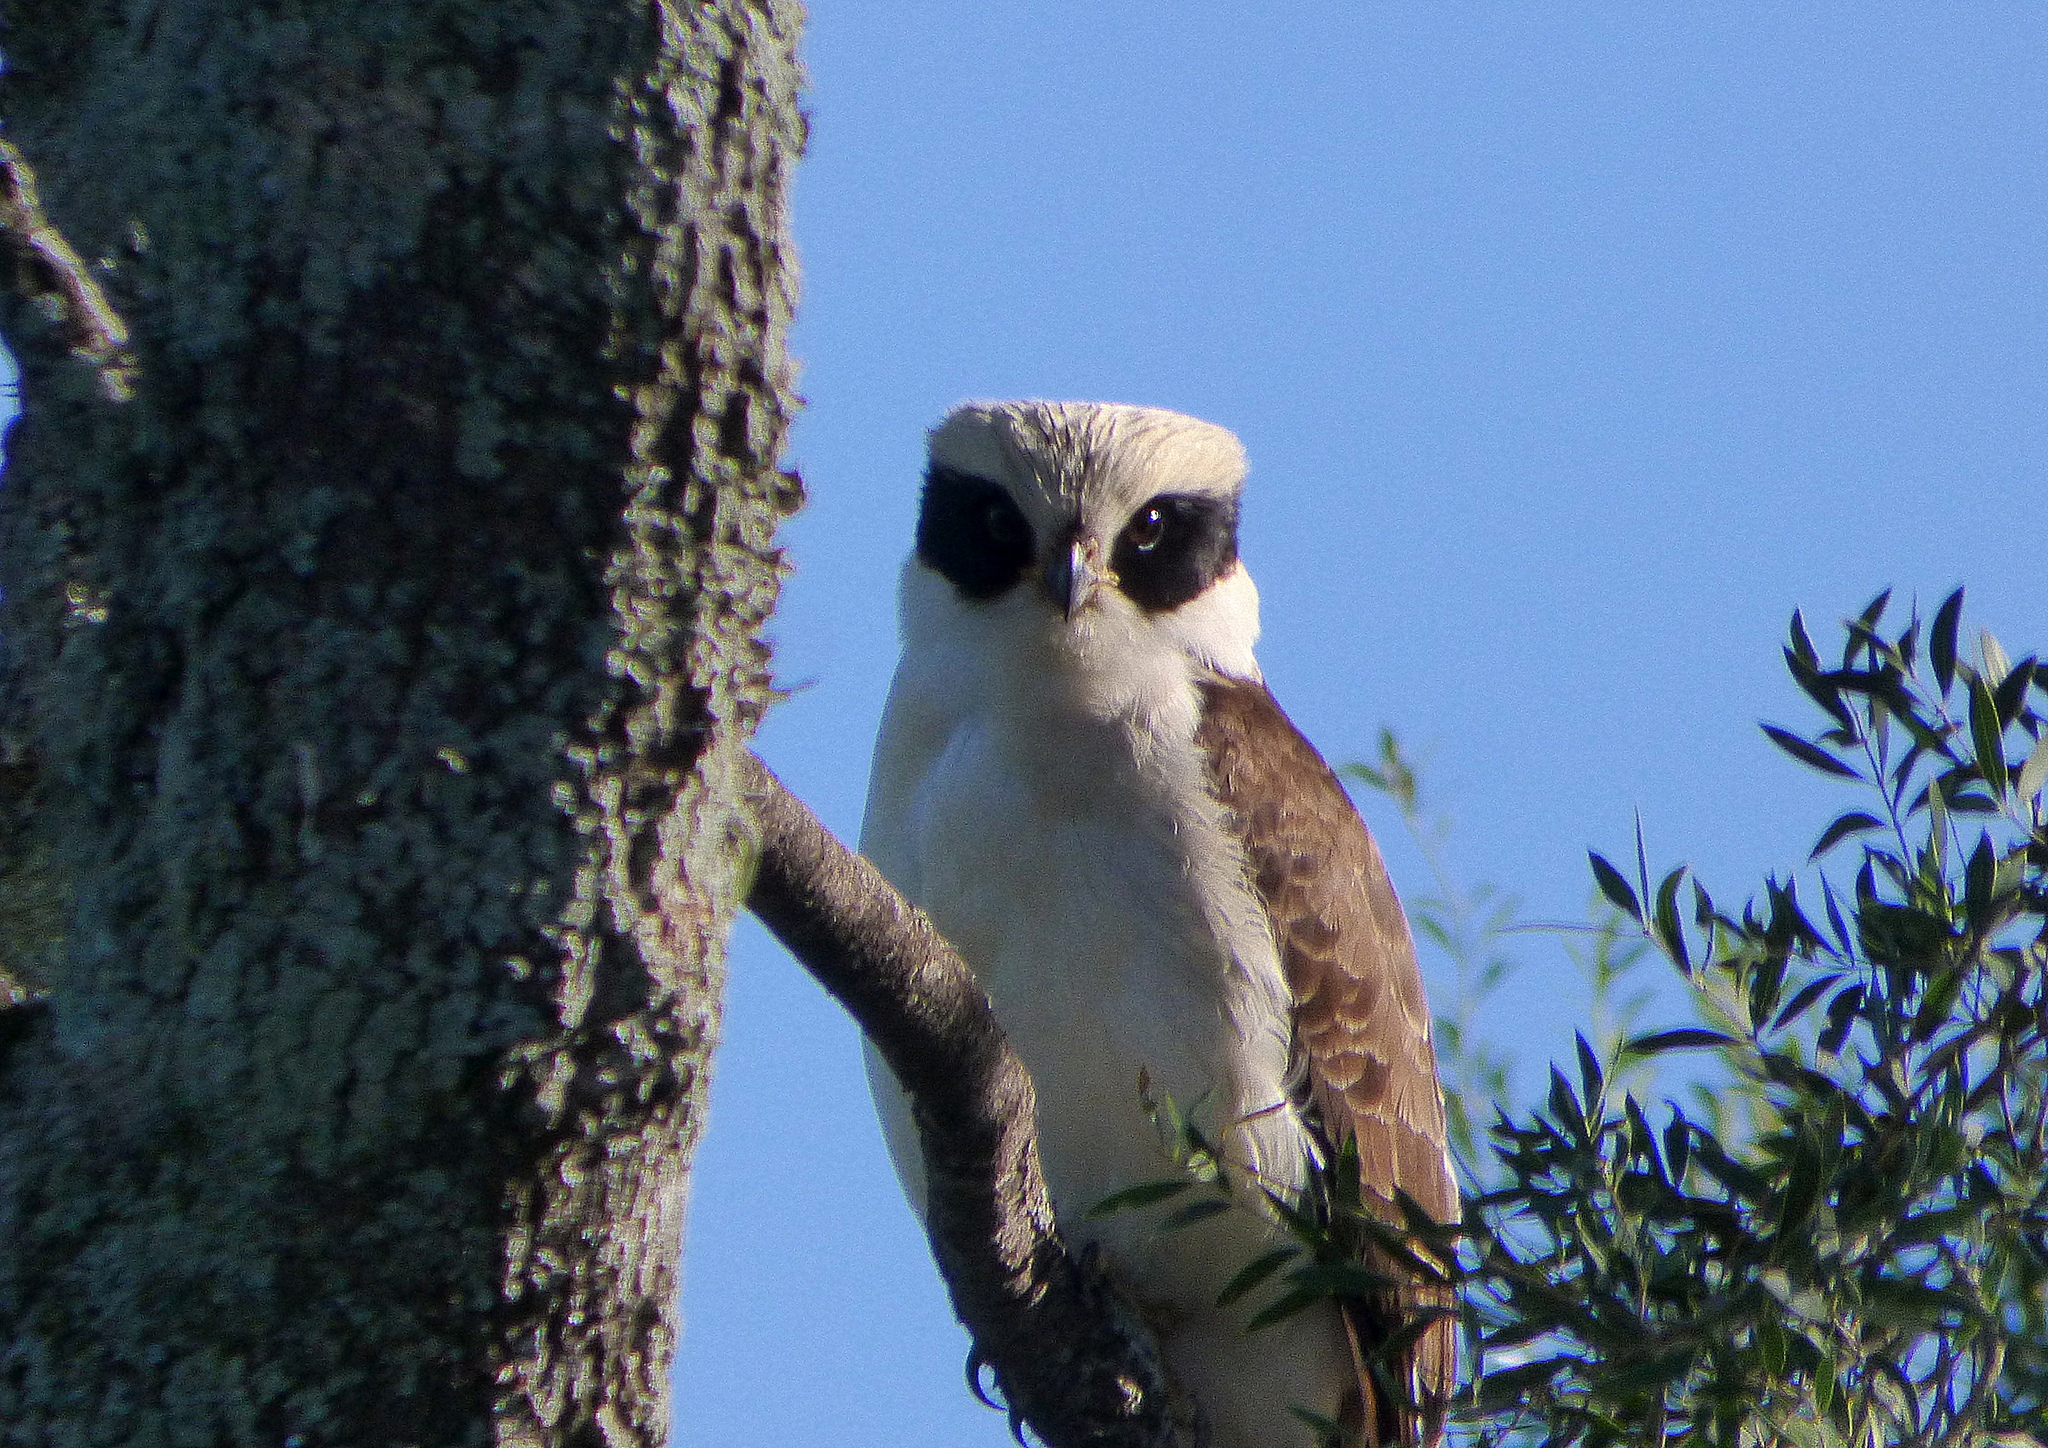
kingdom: Animalia
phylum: Chordata
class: Aves
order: Falconiformes
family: Falconidae
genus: Herpetotheres
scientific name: Herpetotheres cachinnans
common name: Laughing falcon
